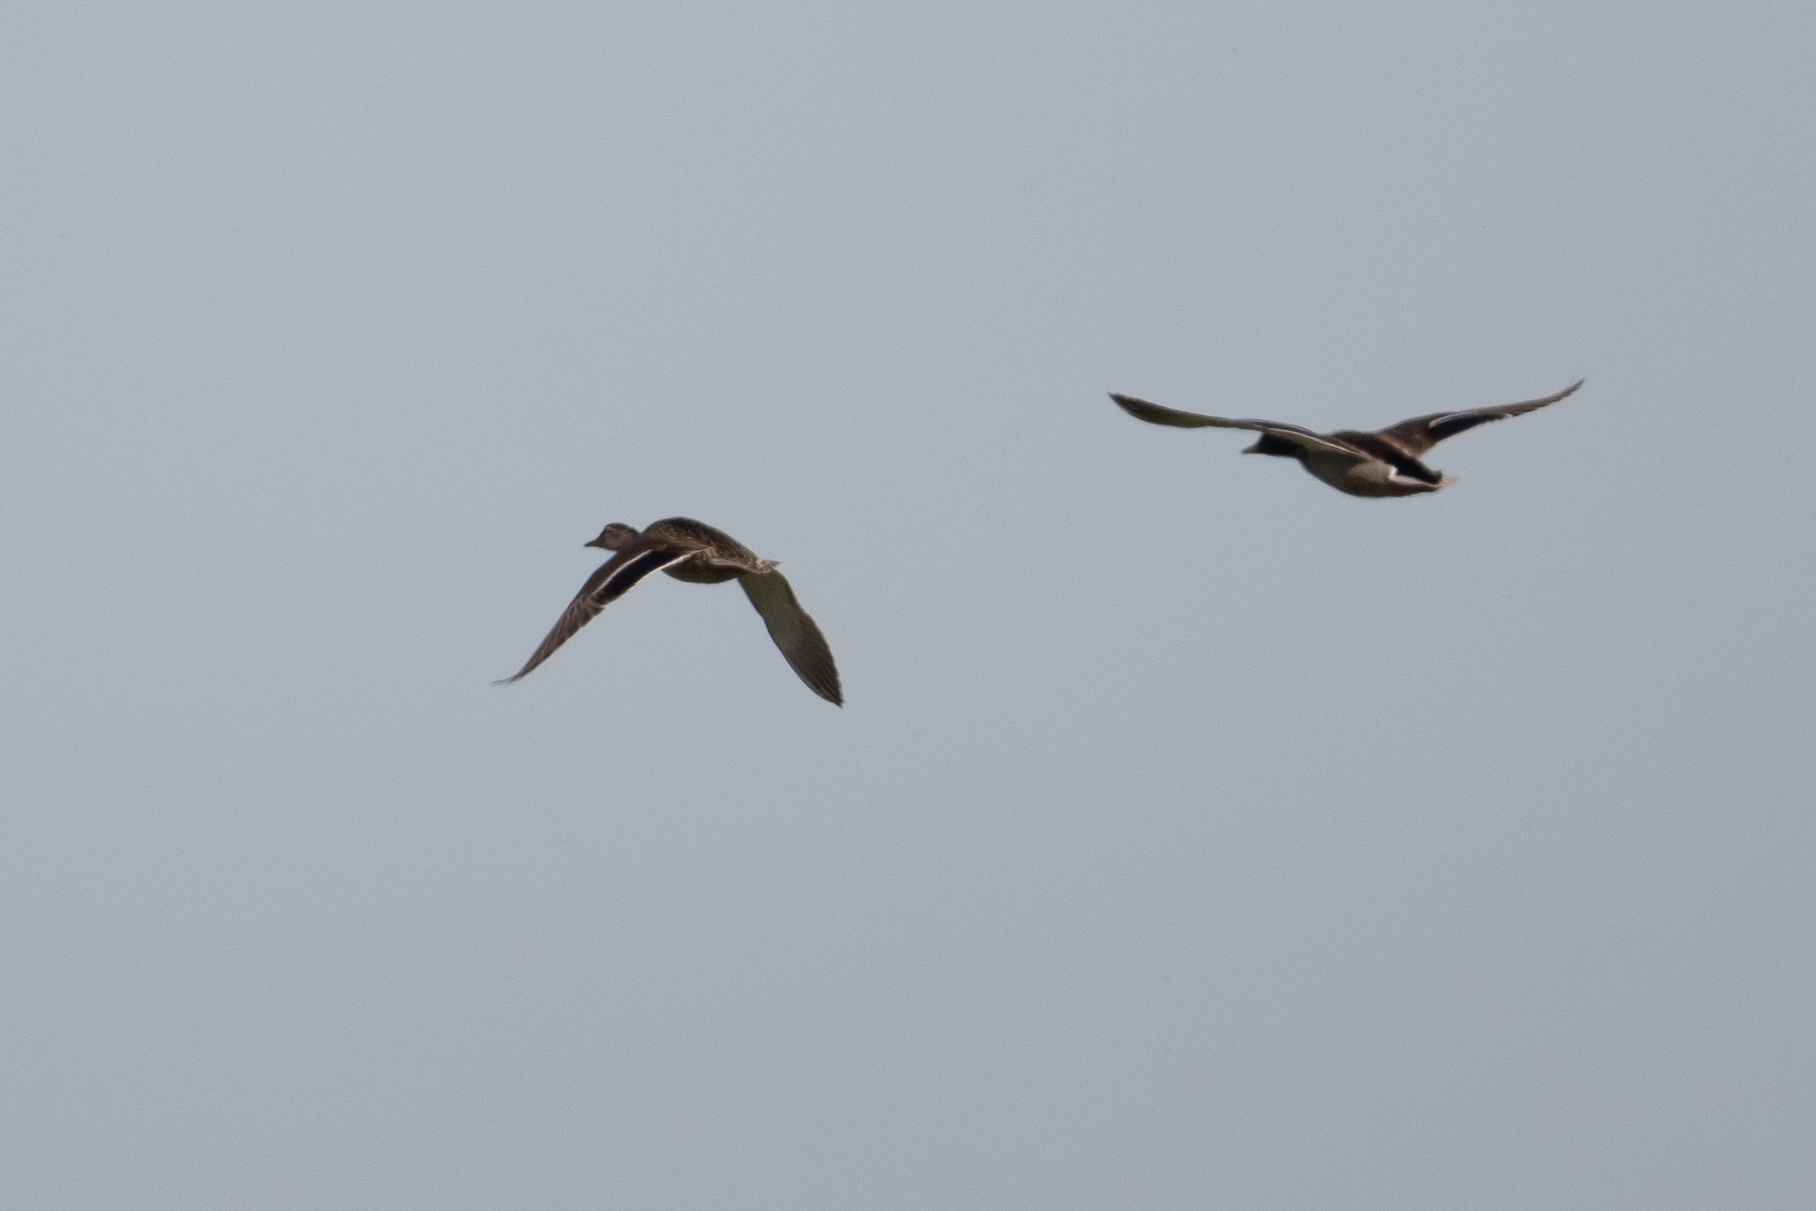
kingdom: Animalia
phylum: Chordata
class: Aves
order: Anseriformes
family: Anatidae
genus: Anas
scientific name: Anas platyrhynchos
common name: Mallard
